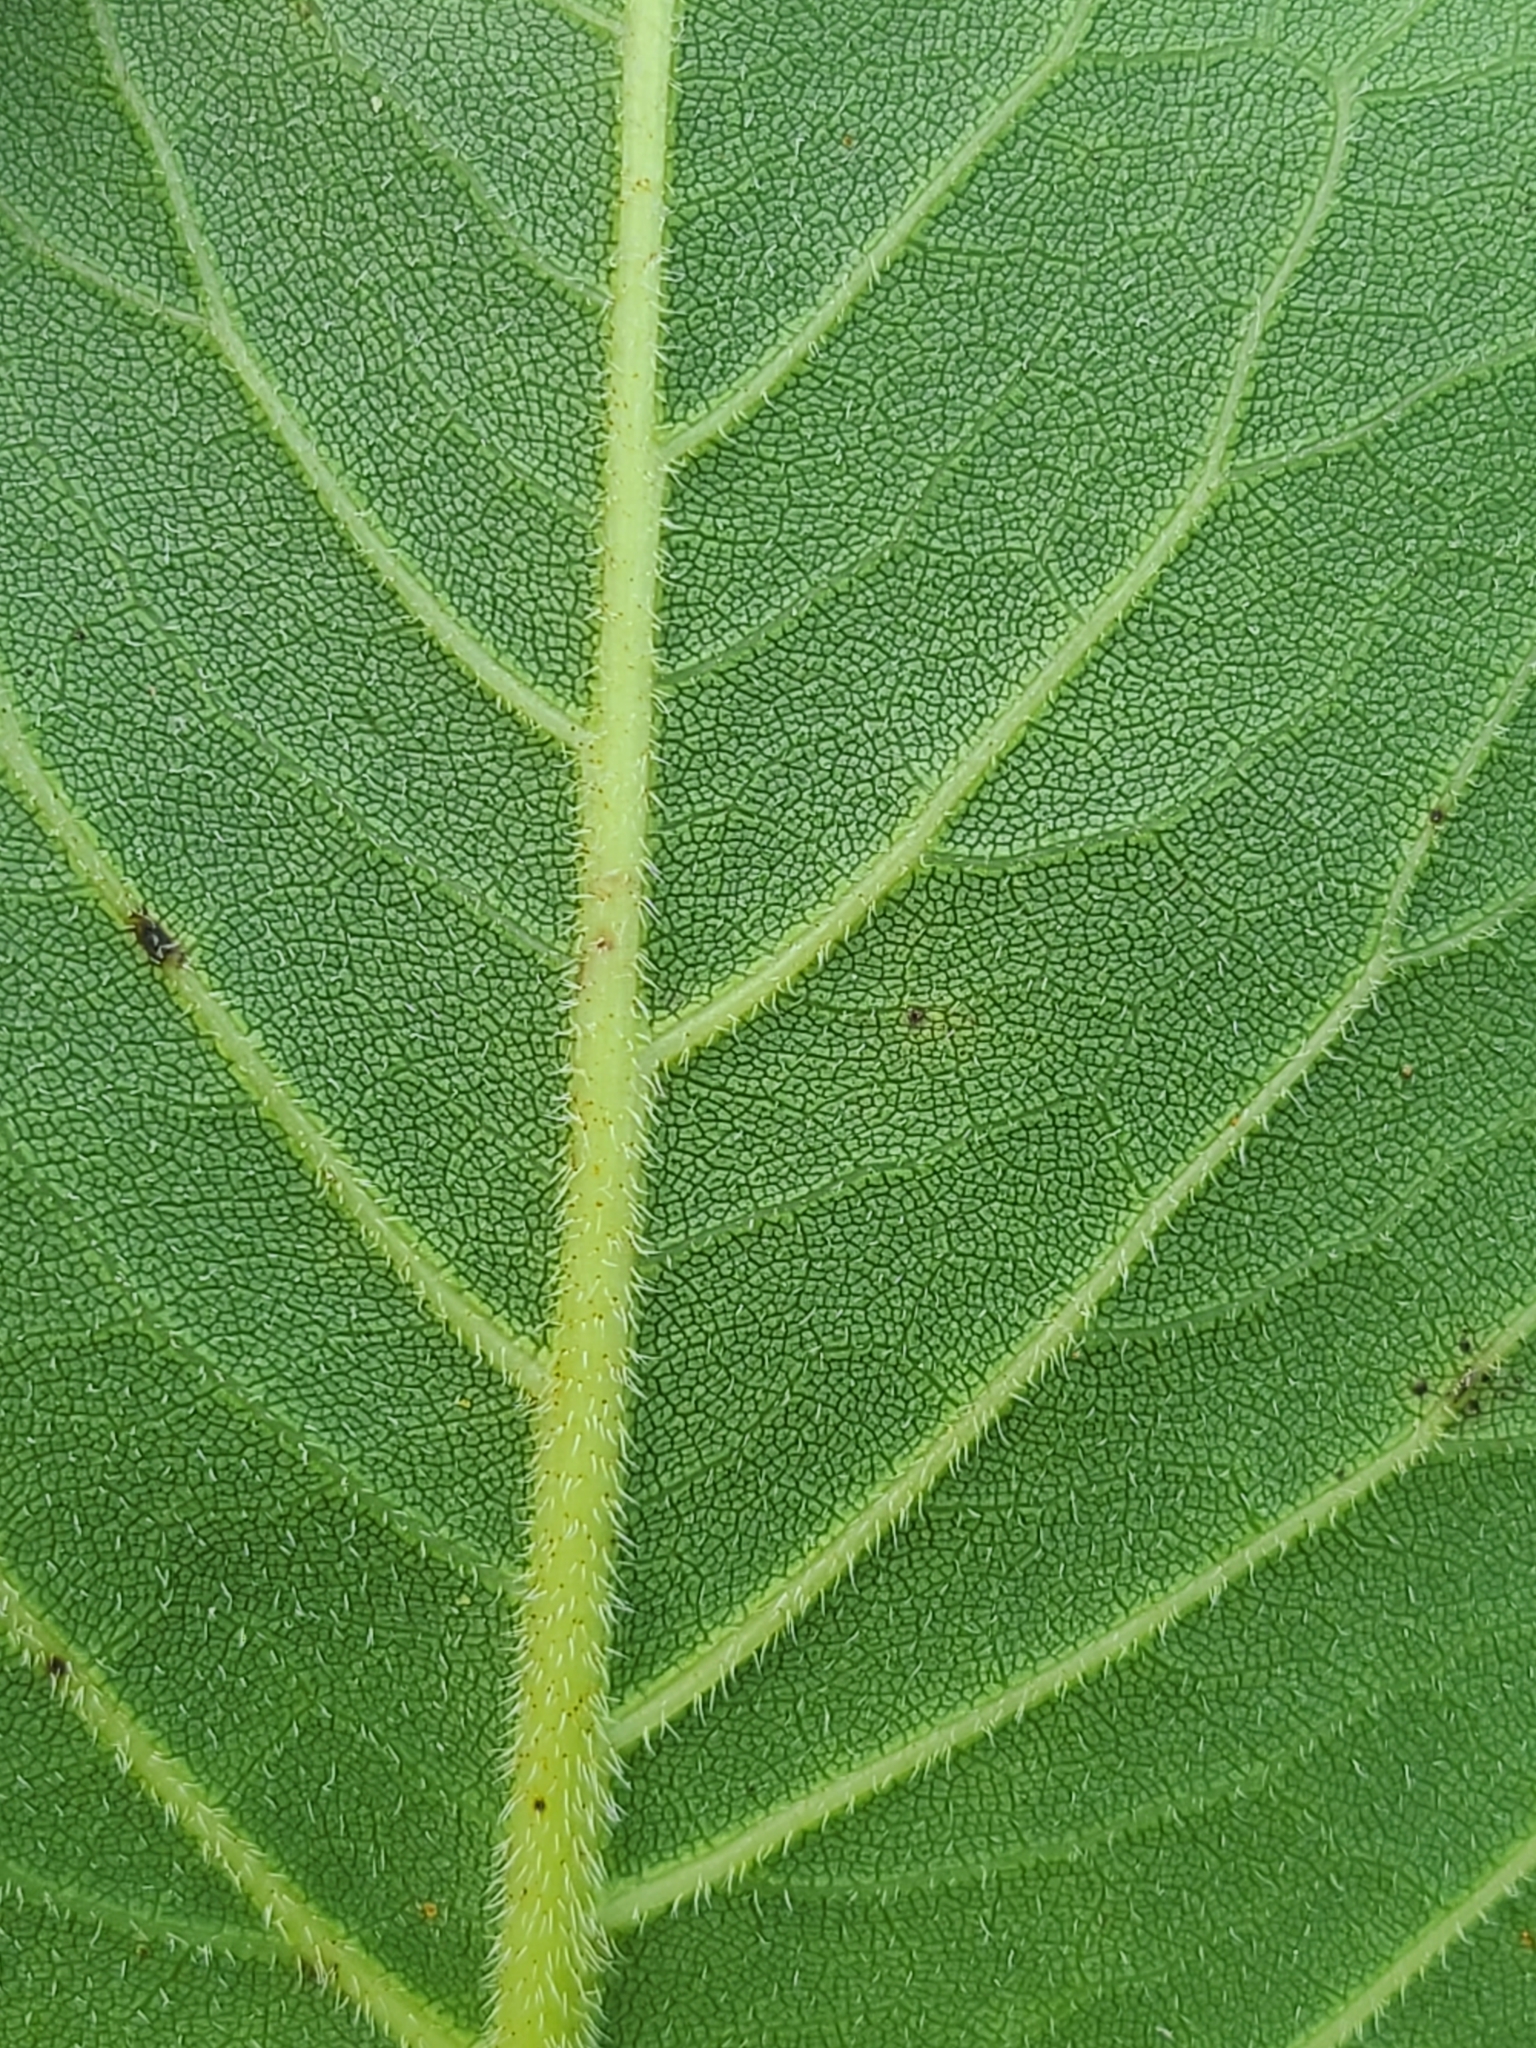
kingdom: Plantae
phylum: Tracheophyta
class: Magnoliopsida
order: Asterales
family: Asteraceae
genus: Silphium
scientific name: Silphium terebinthinaceum
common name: Basal-leaf rosinweed
